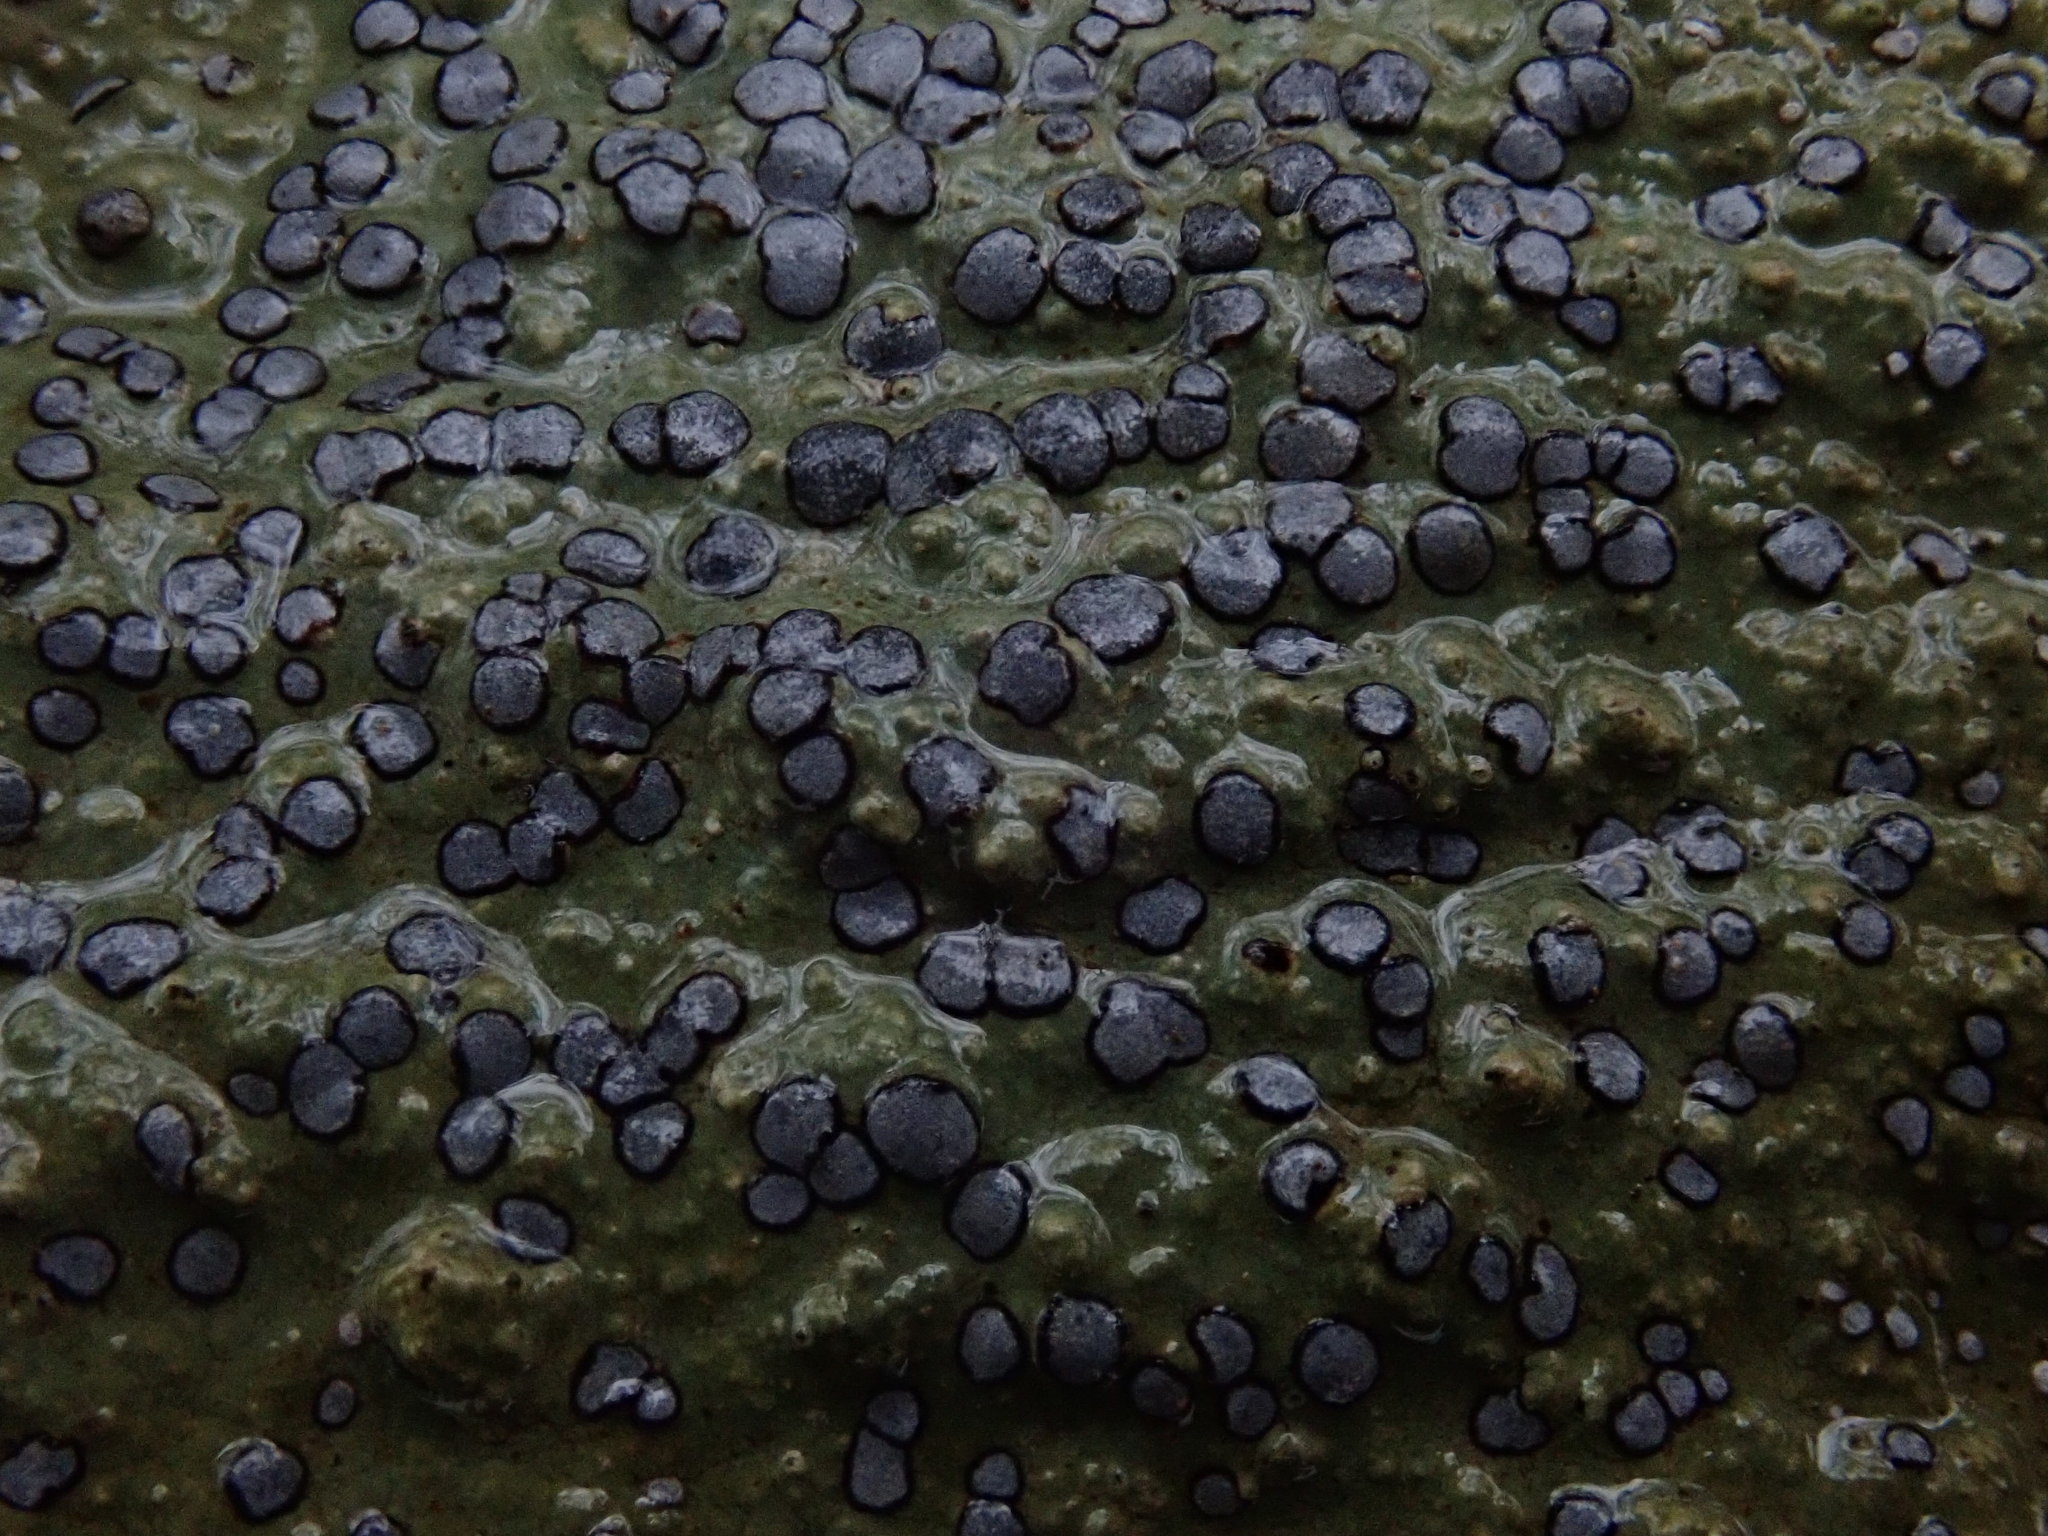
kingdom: Fungi
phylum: Ascomycota
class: Lecanoromycetes
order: Lecideales
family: Lecideaceae
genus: Porpidia
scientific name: Porpidia albocaerulescens
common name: Smokey-eyed boulder lichen
